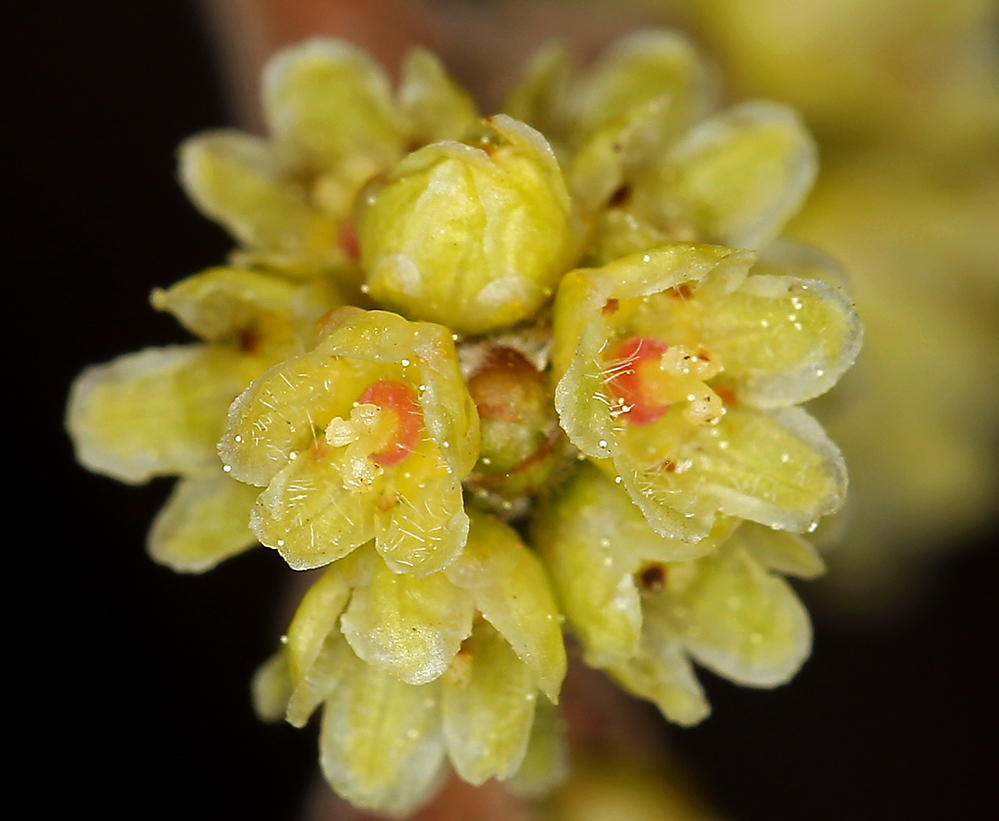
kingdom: Plantae
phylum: Tracheophyta
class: Magnoliopsida
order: Sapindales
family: Anacardiaceae
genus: Rhus
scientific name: Rhus aromatica
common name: Aromatic sumac
